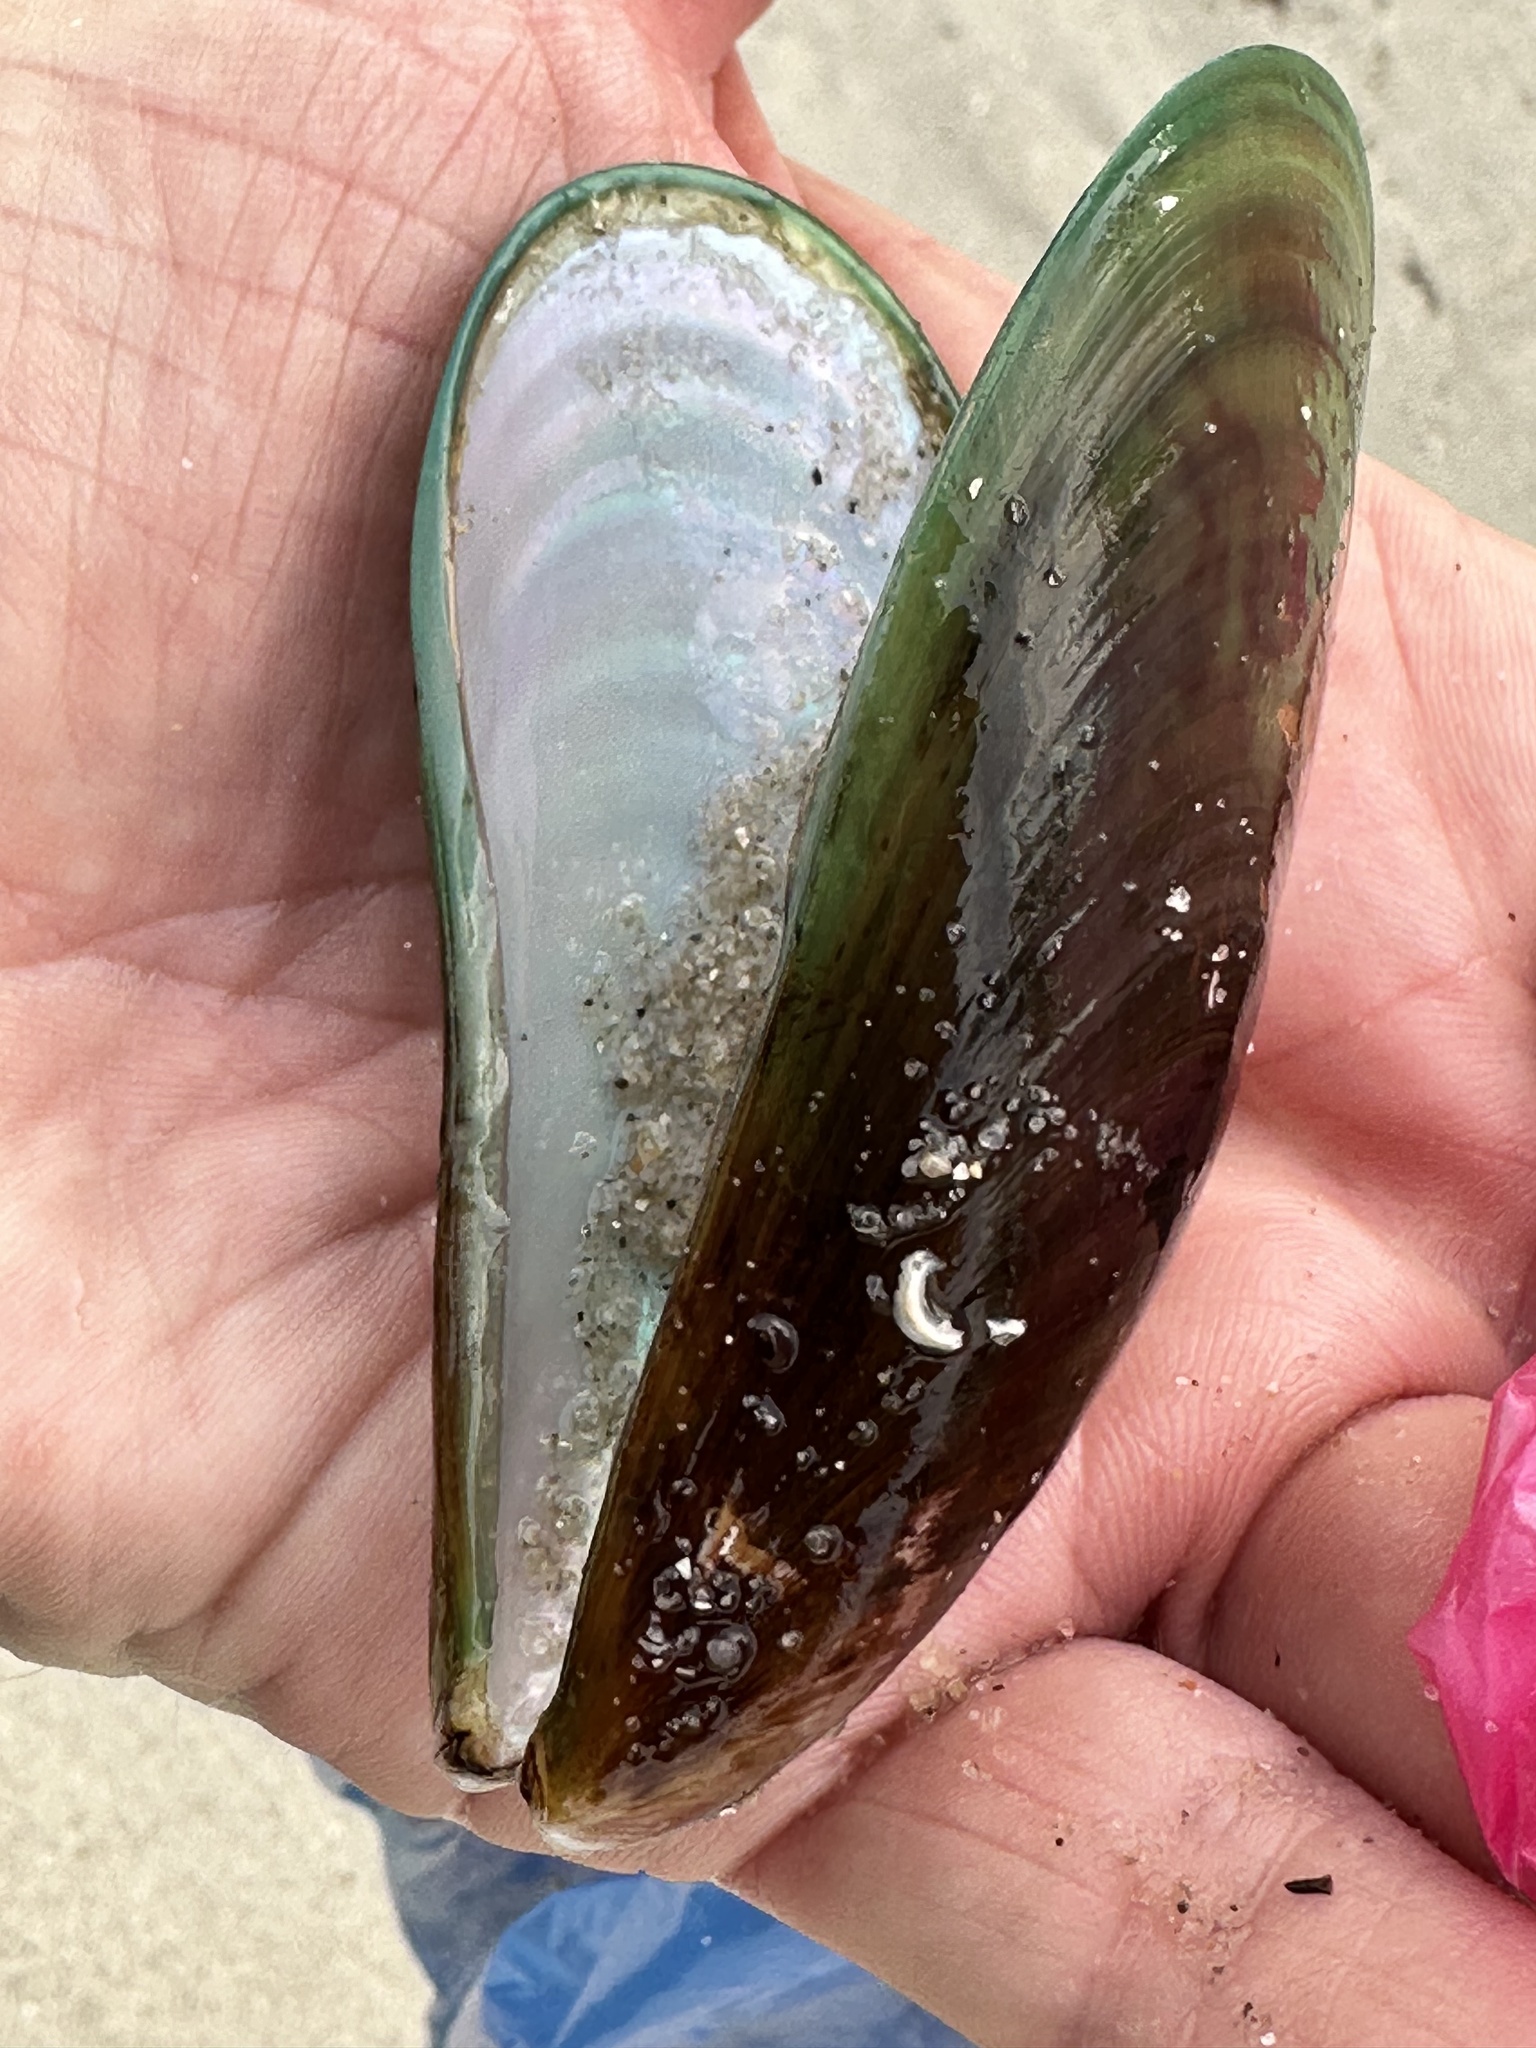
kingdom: Animalia
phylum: Mollusca
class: Bivalvia
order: Mytilida
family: Mytilidae
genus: Perna
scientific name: Perna viridis
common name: Green mussel
